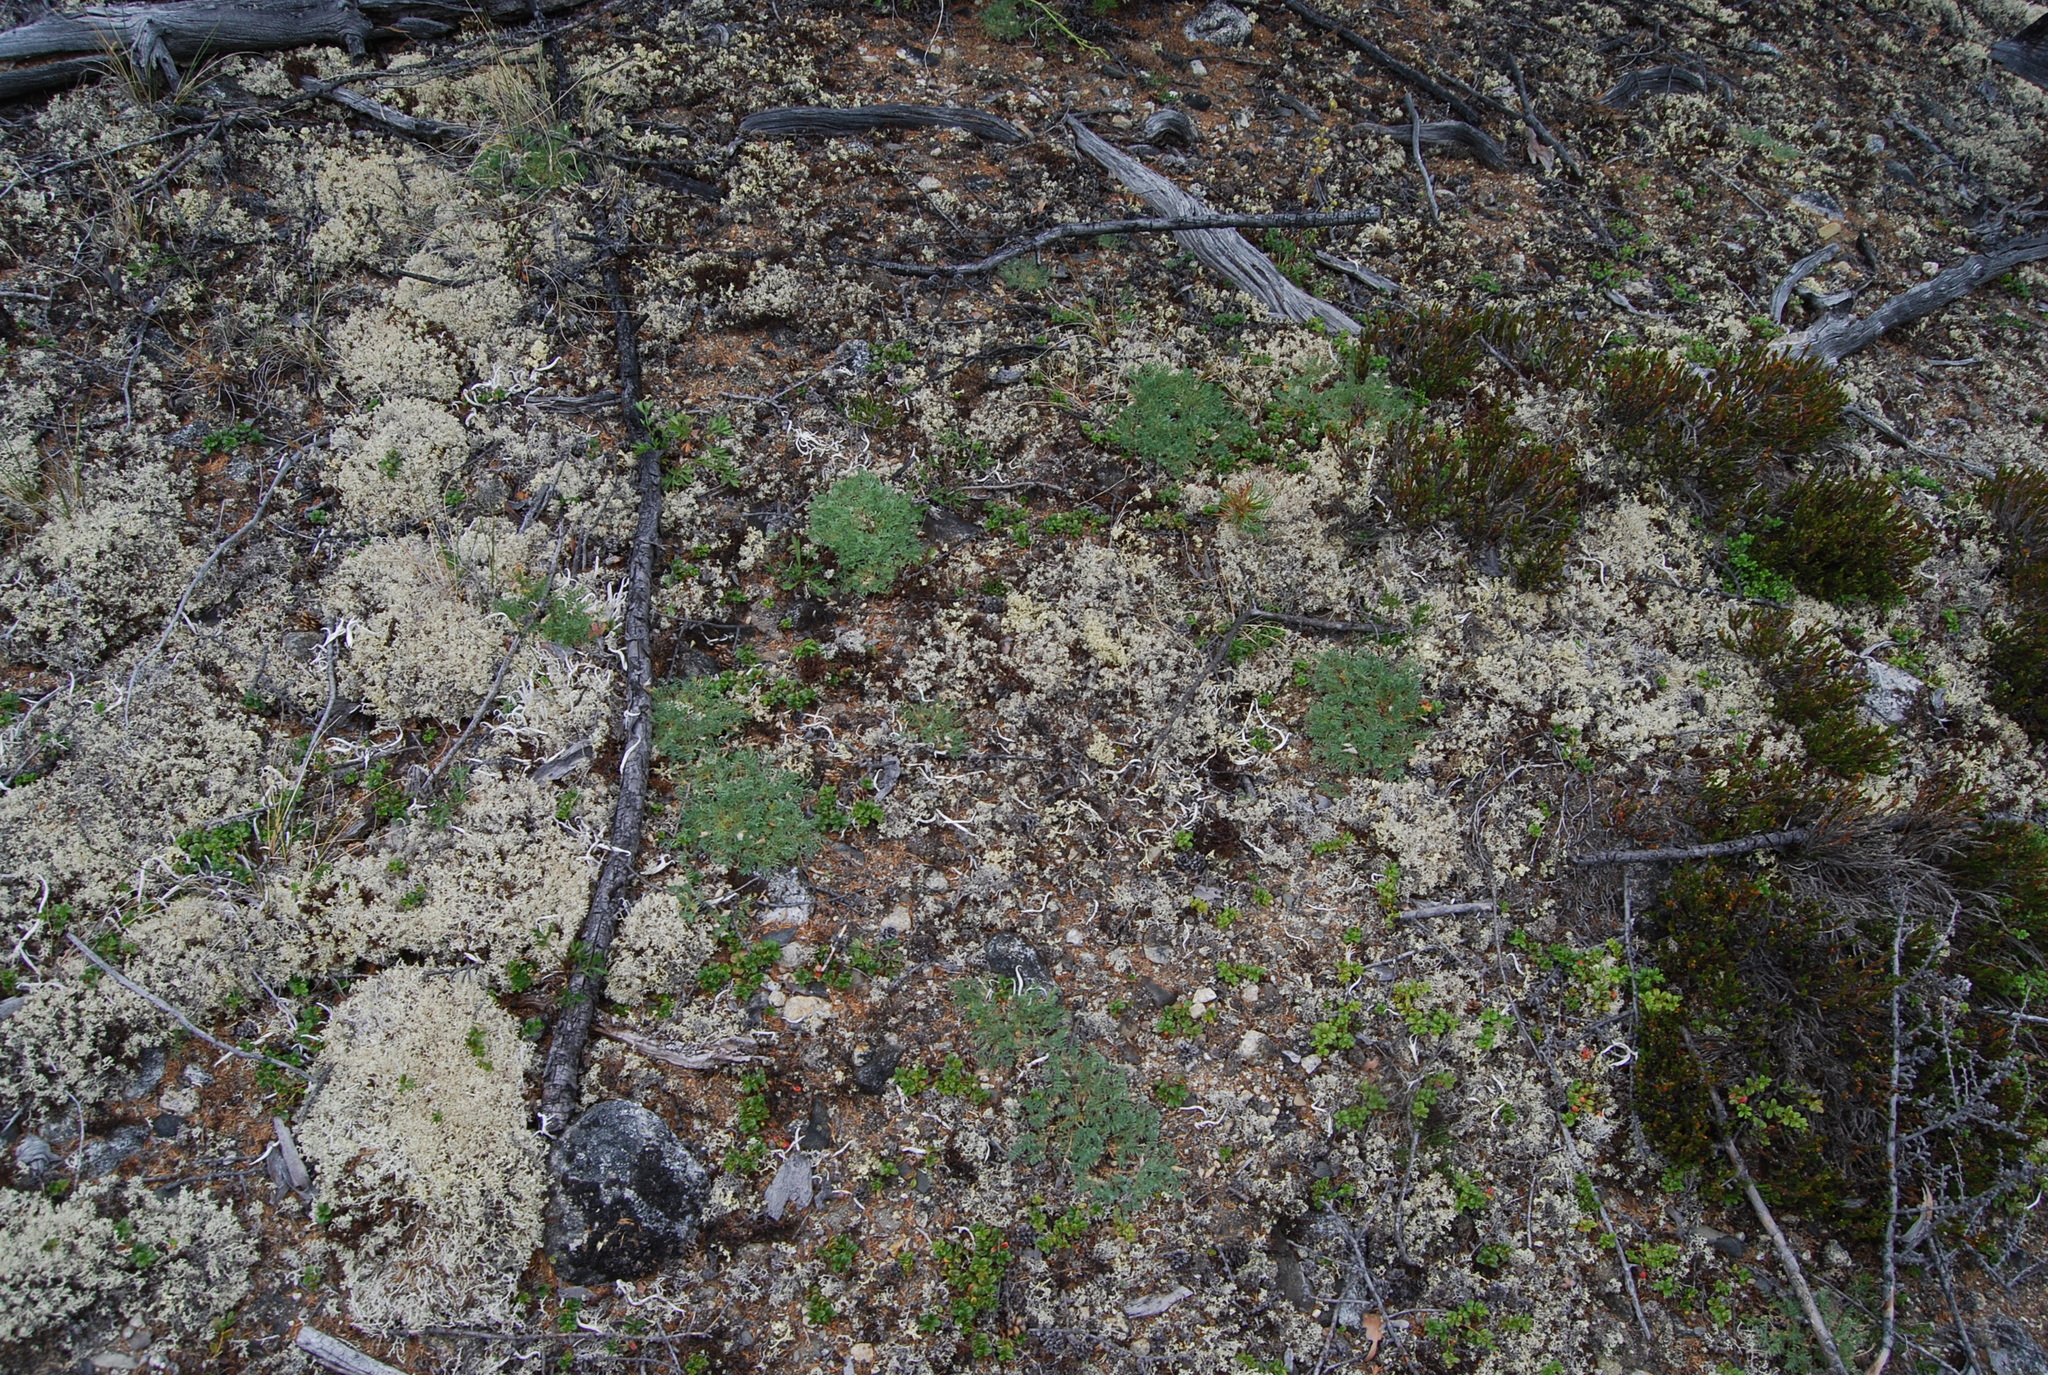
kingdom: Plantae
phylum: Tracheophyta
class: Magnoliopsida
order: Fabales
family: Fabaceae
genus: Oxytropis
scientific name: Oxytropis susumanica
